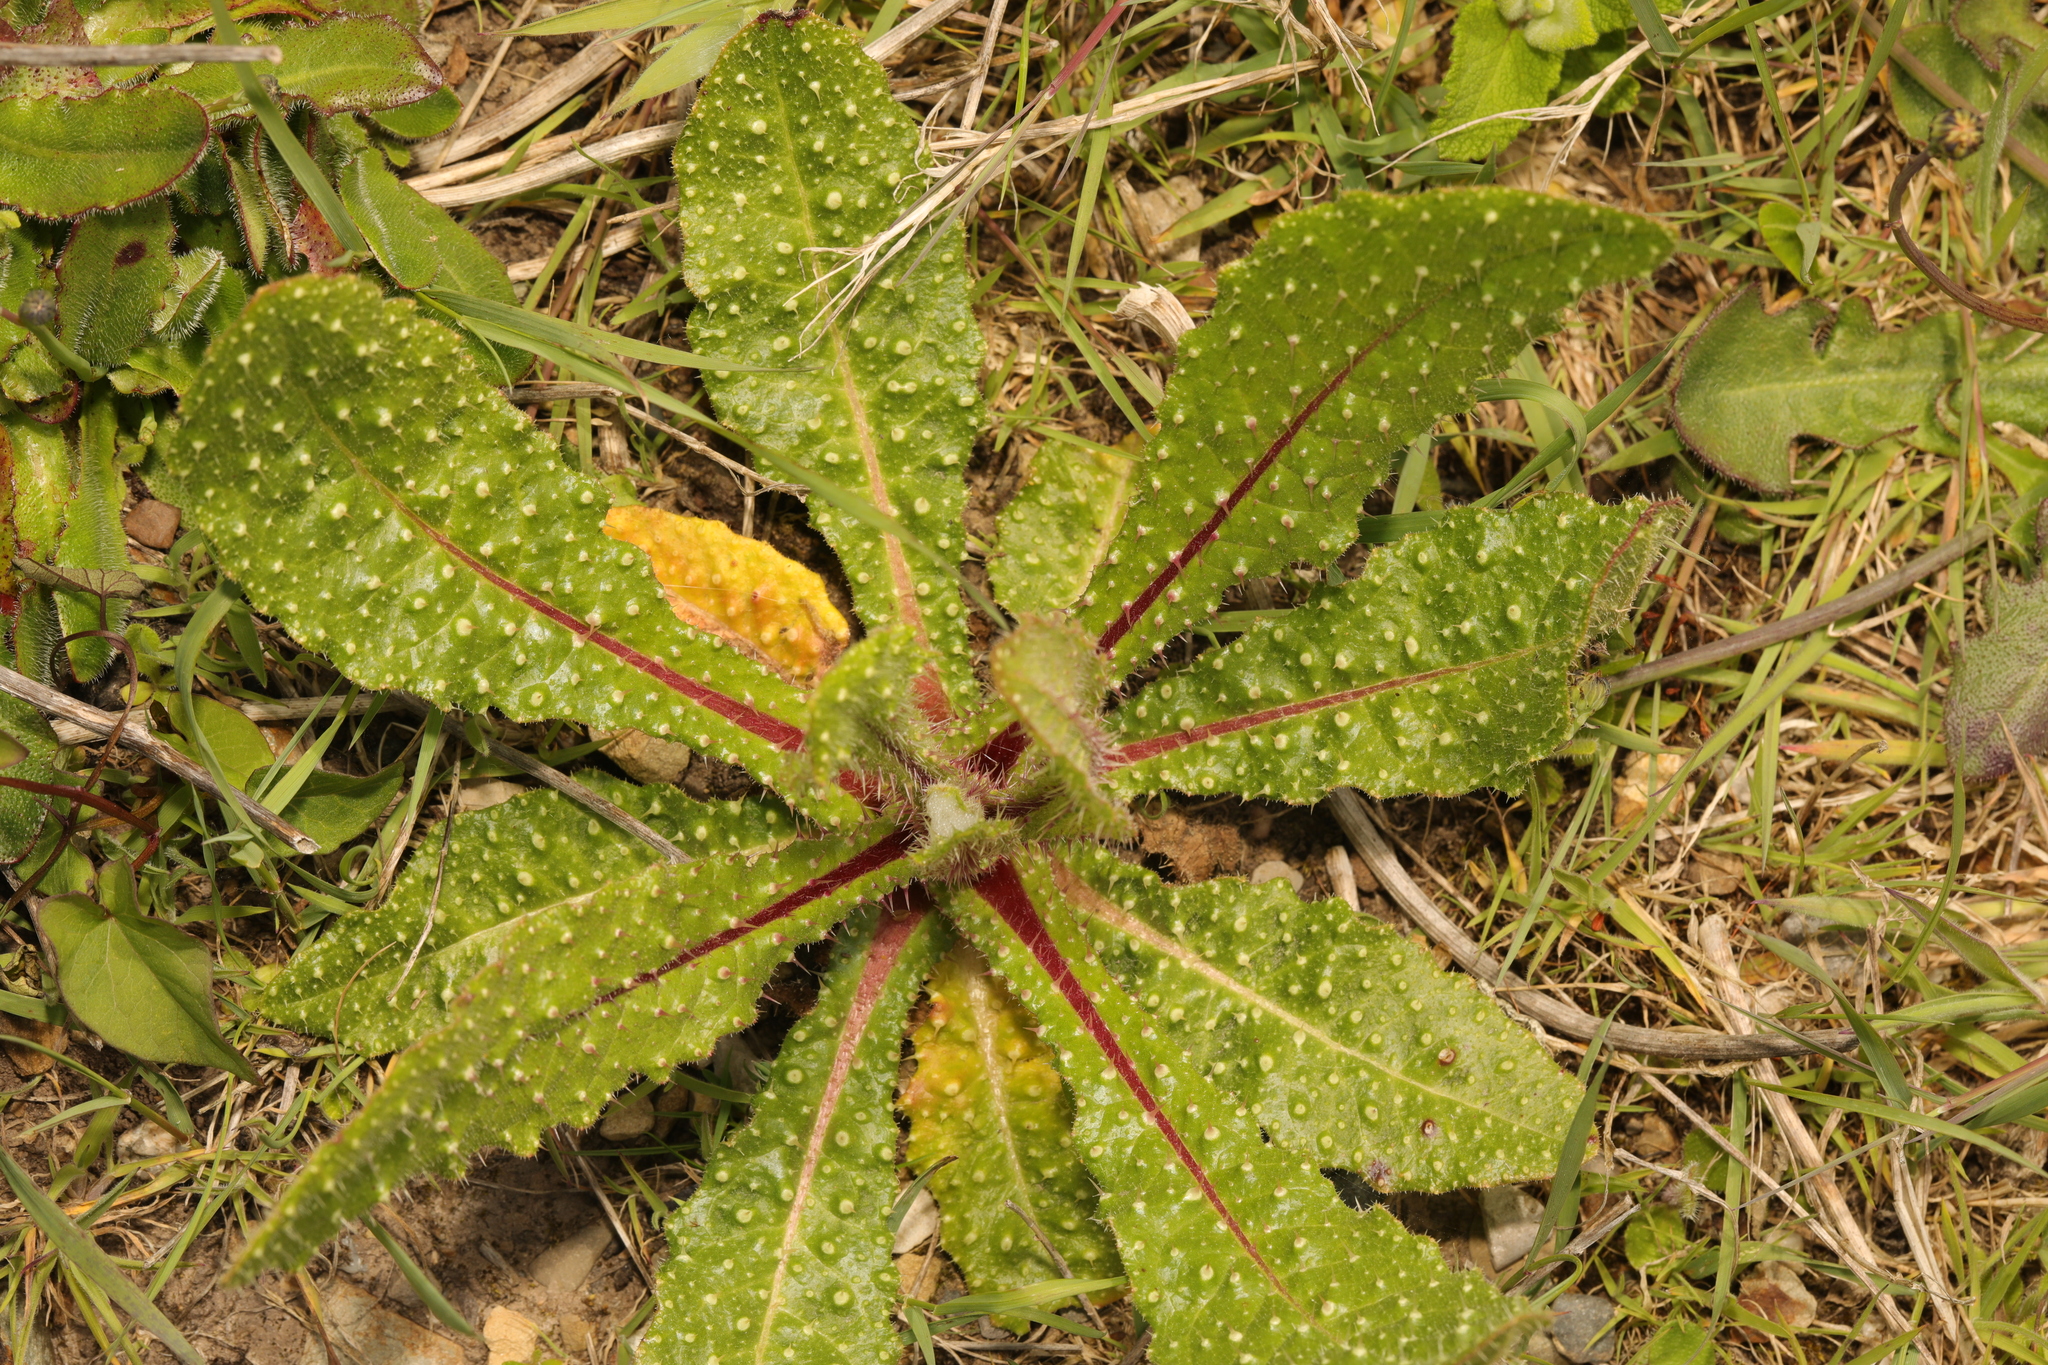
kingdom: Plantae
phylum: Tracheophyta
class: Magnoliopsida
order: Asterales
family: Asteraceae
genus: Helminthotheca
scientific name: Helminthotheca echioides
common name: Ox-tongue
